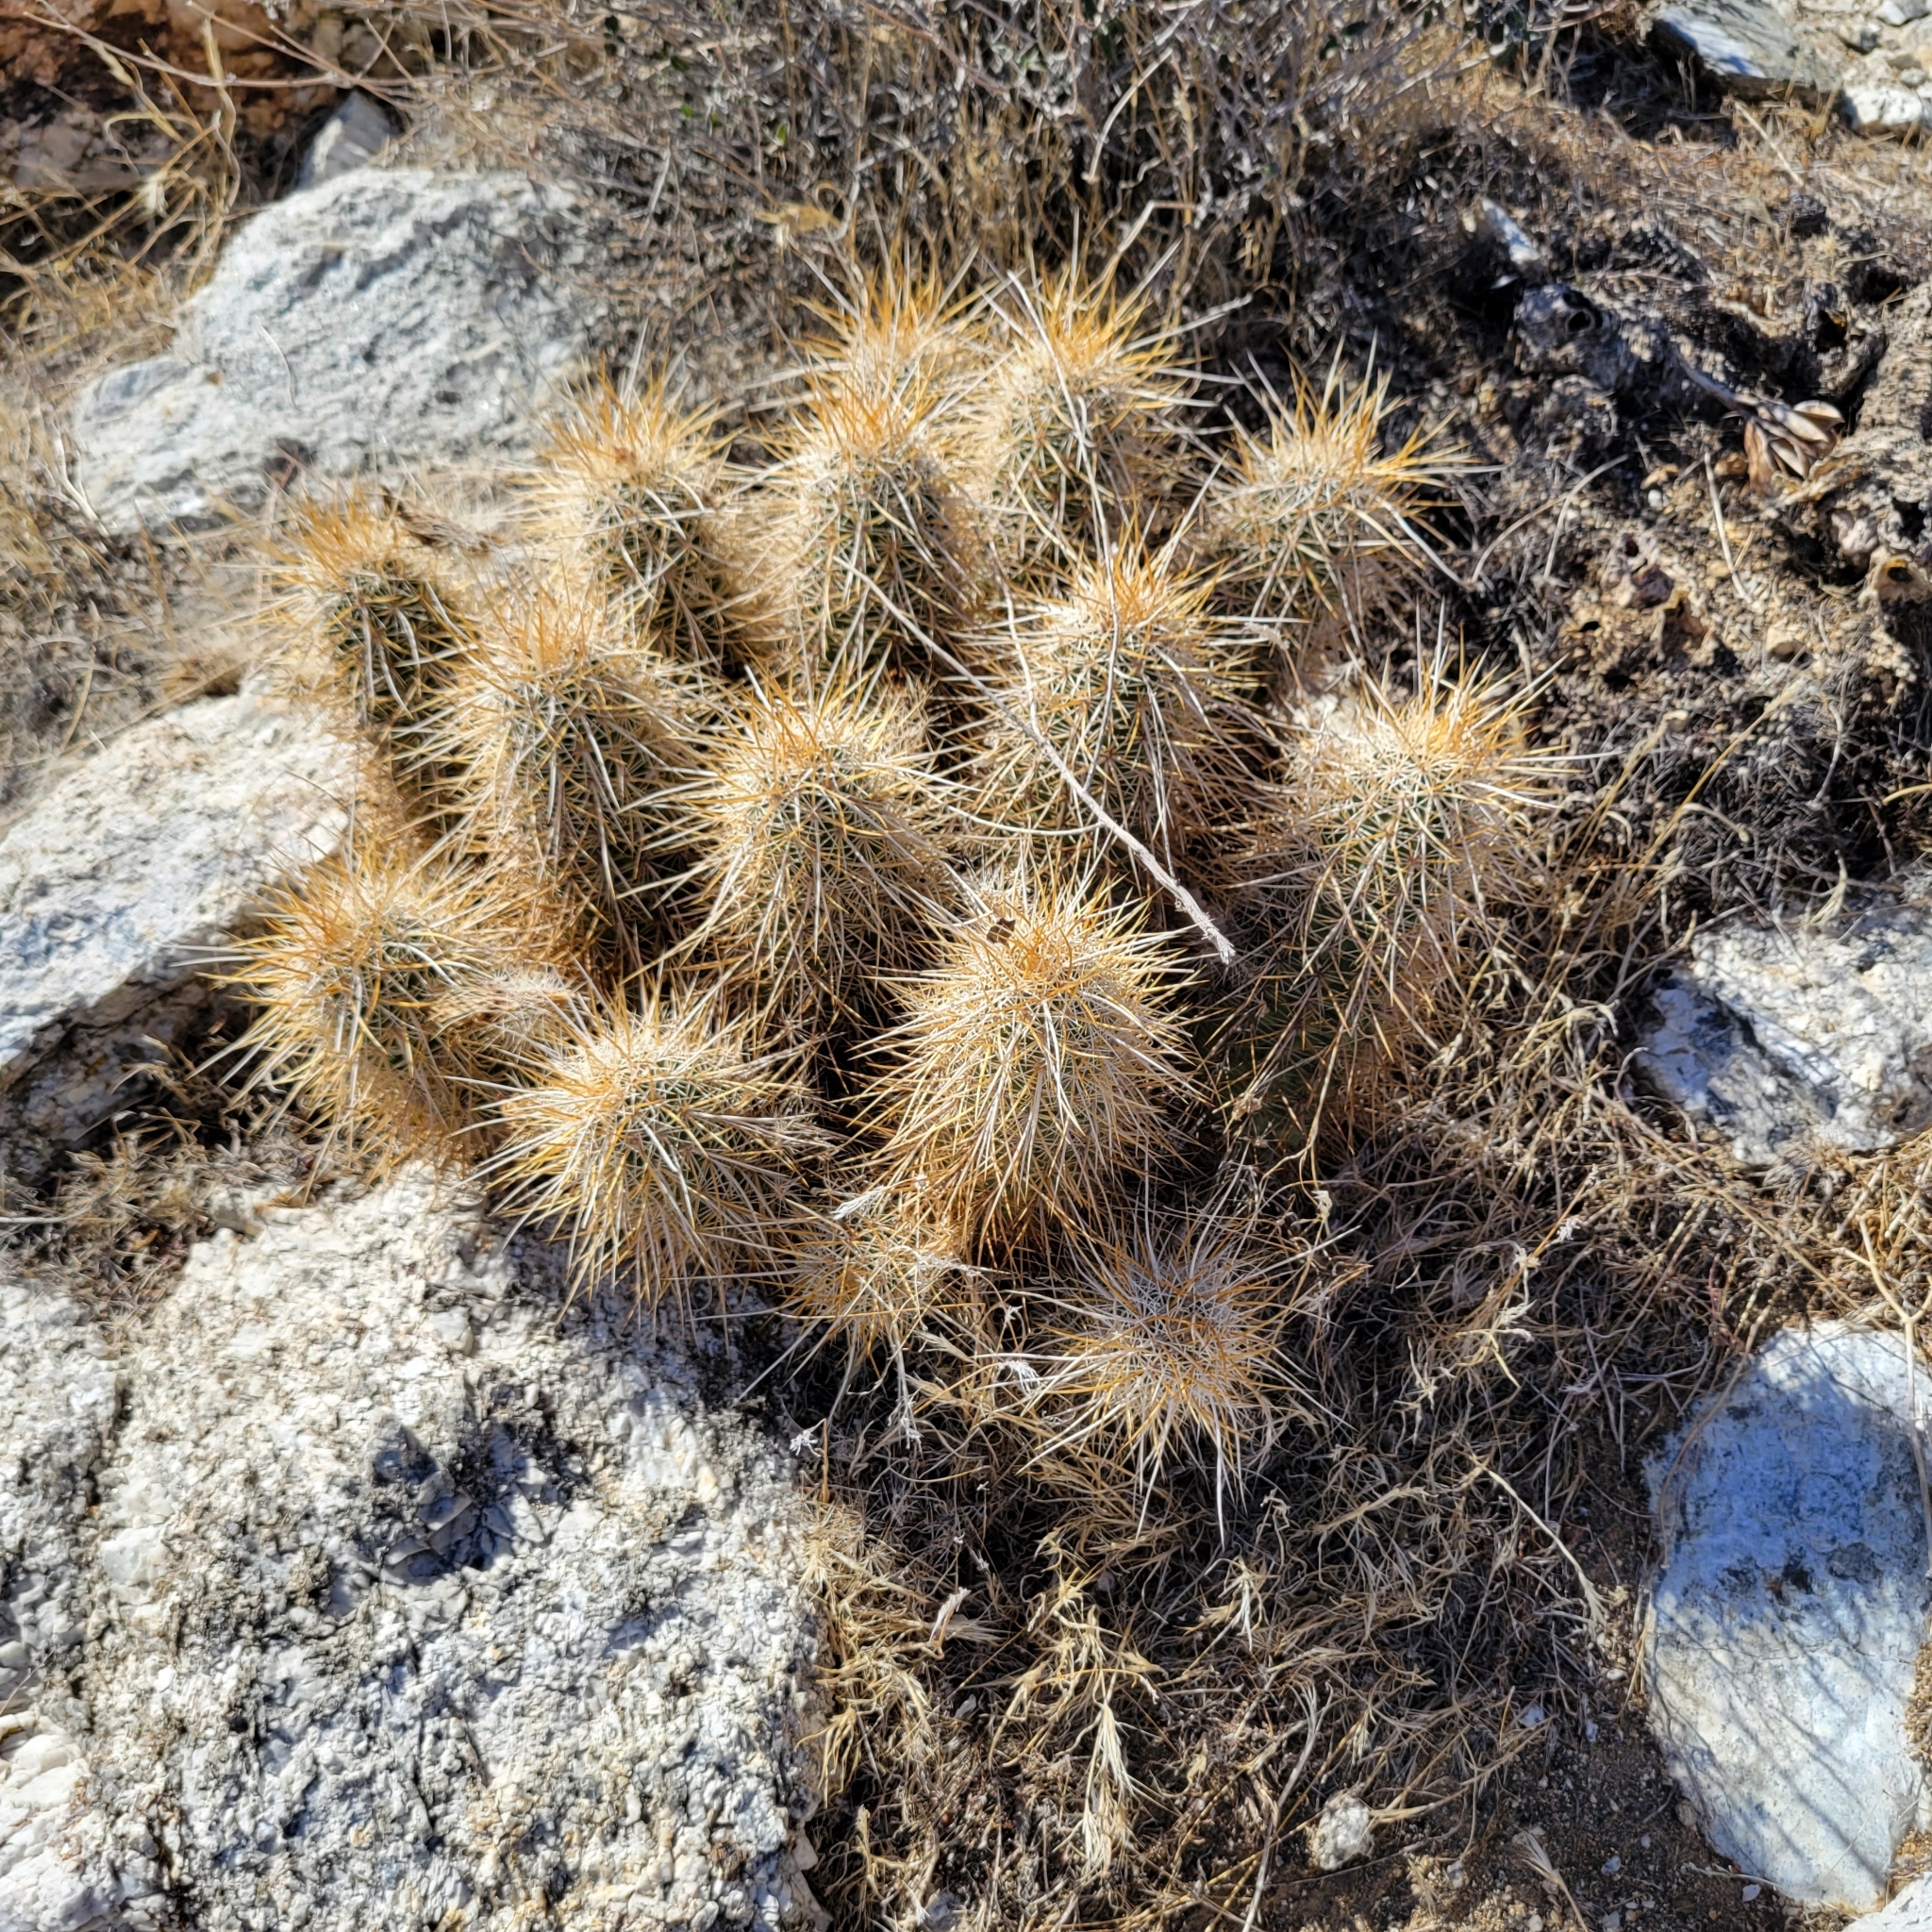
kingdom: Plantae
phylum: Tracheophyta
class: Magnoliopsida
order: Caryophyllales
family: Cactaceae
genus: Echinocereus
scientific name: Echinocereus engelmannii
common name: Engelmann's hedgehog cactus
